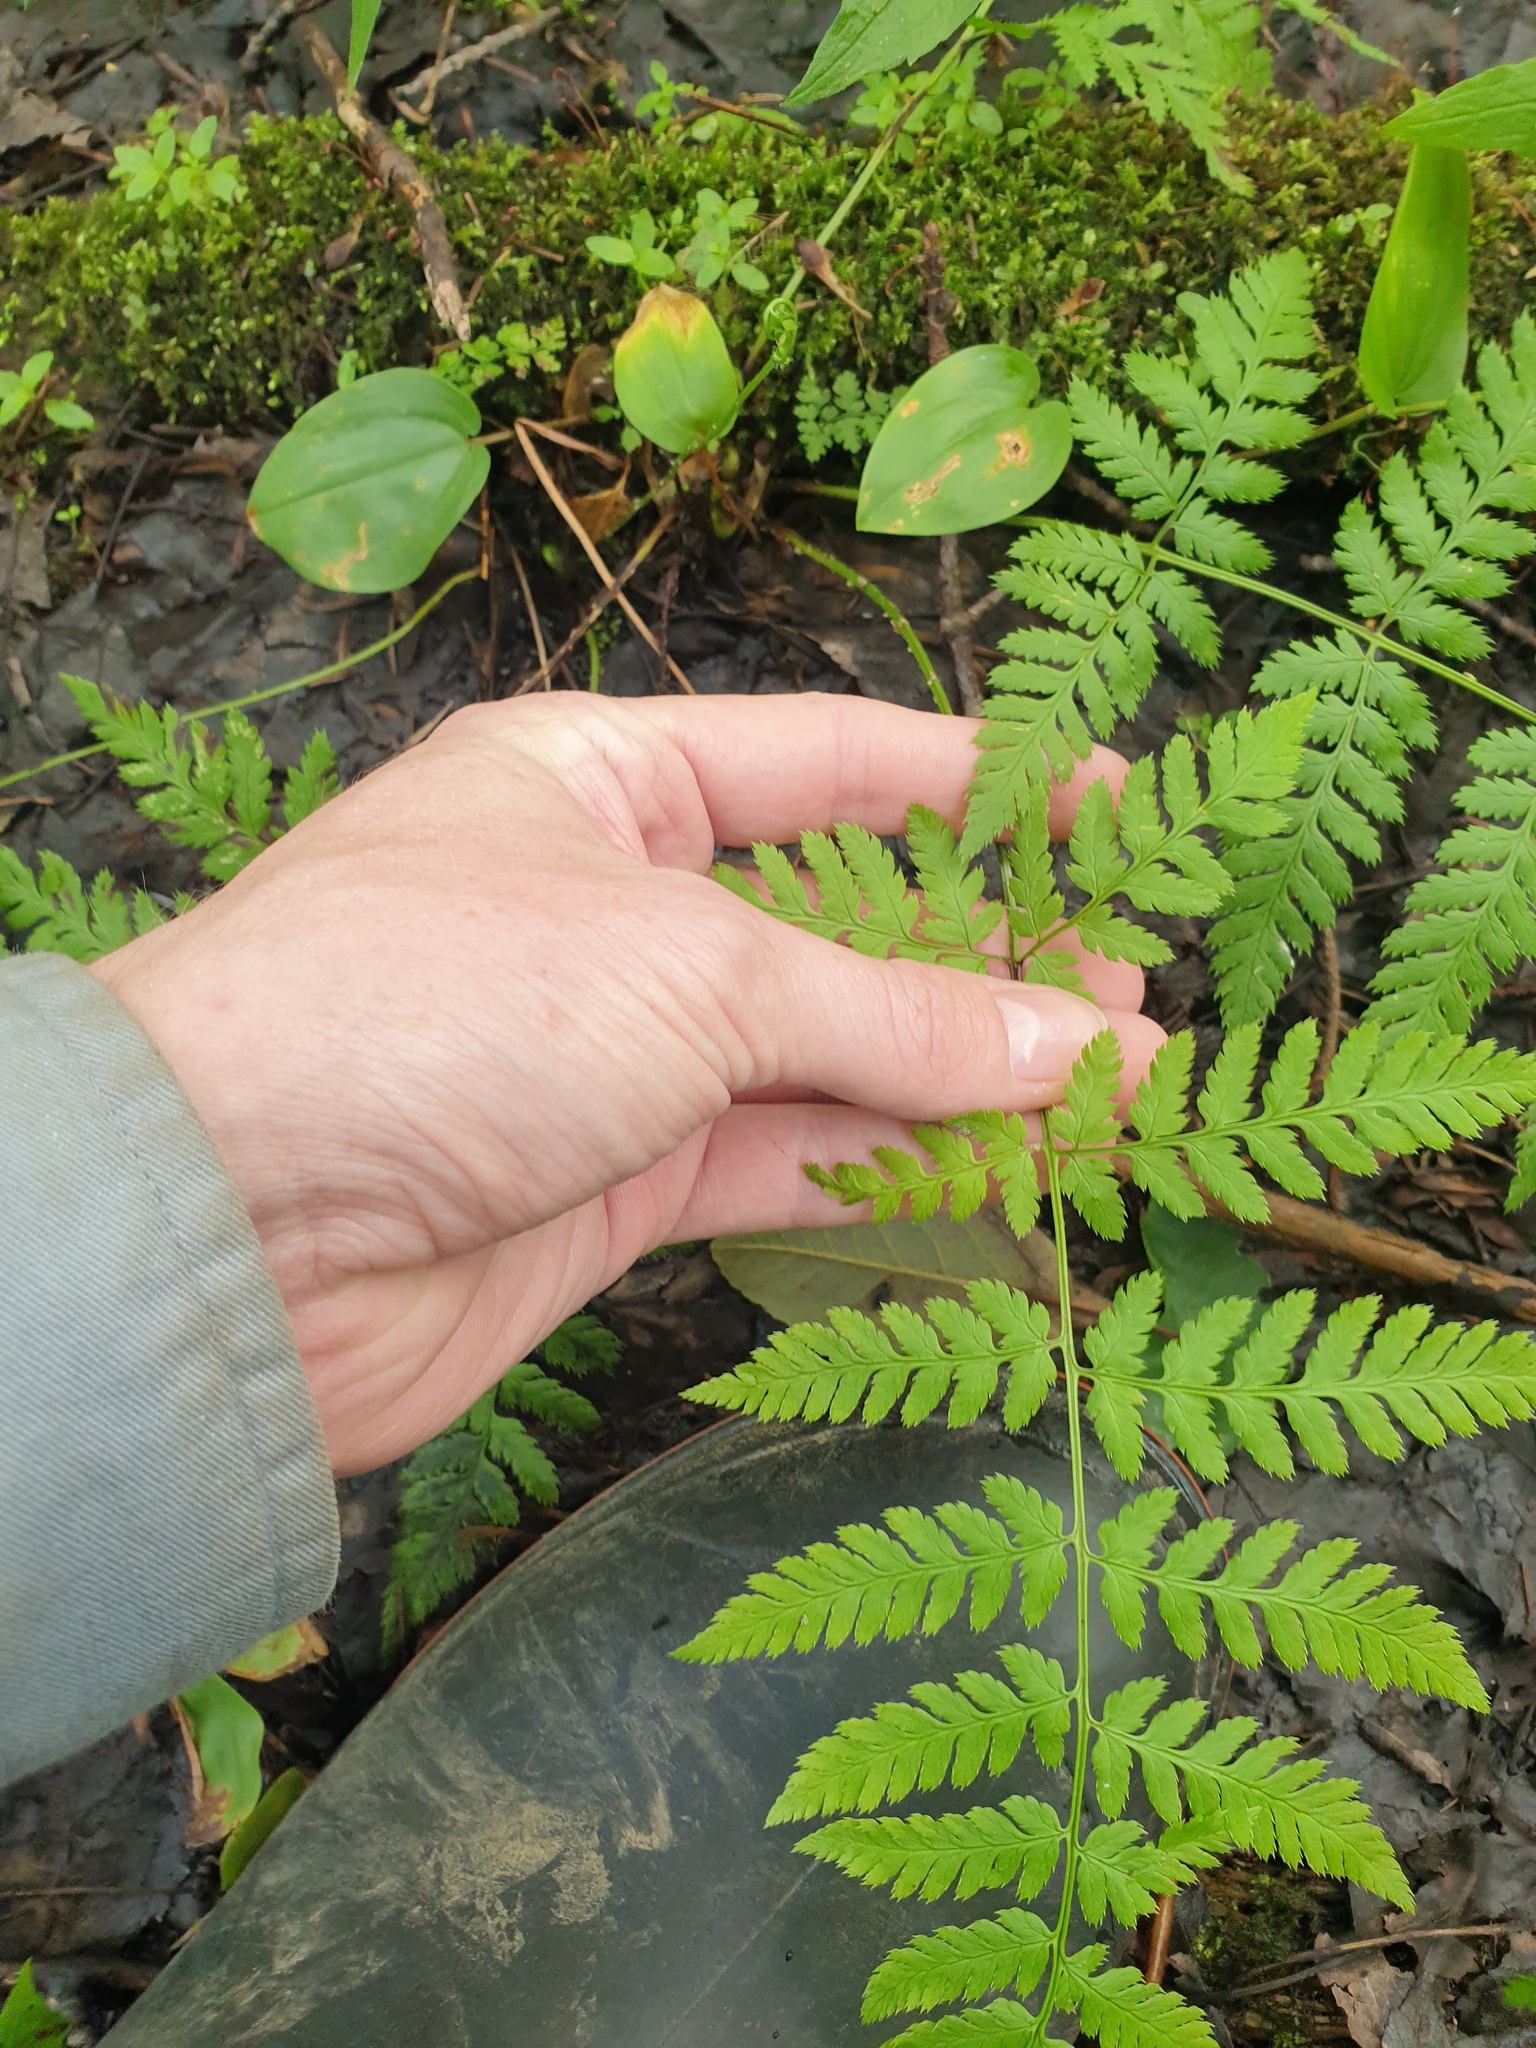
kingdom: Plantae
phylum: Tracheophyta
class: Polypodiopsida
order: Polypodiales
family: Dryopteridaceae
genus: Dryopteris
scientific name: Dryopteris carthusiana
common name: Narrow buckler-fern
